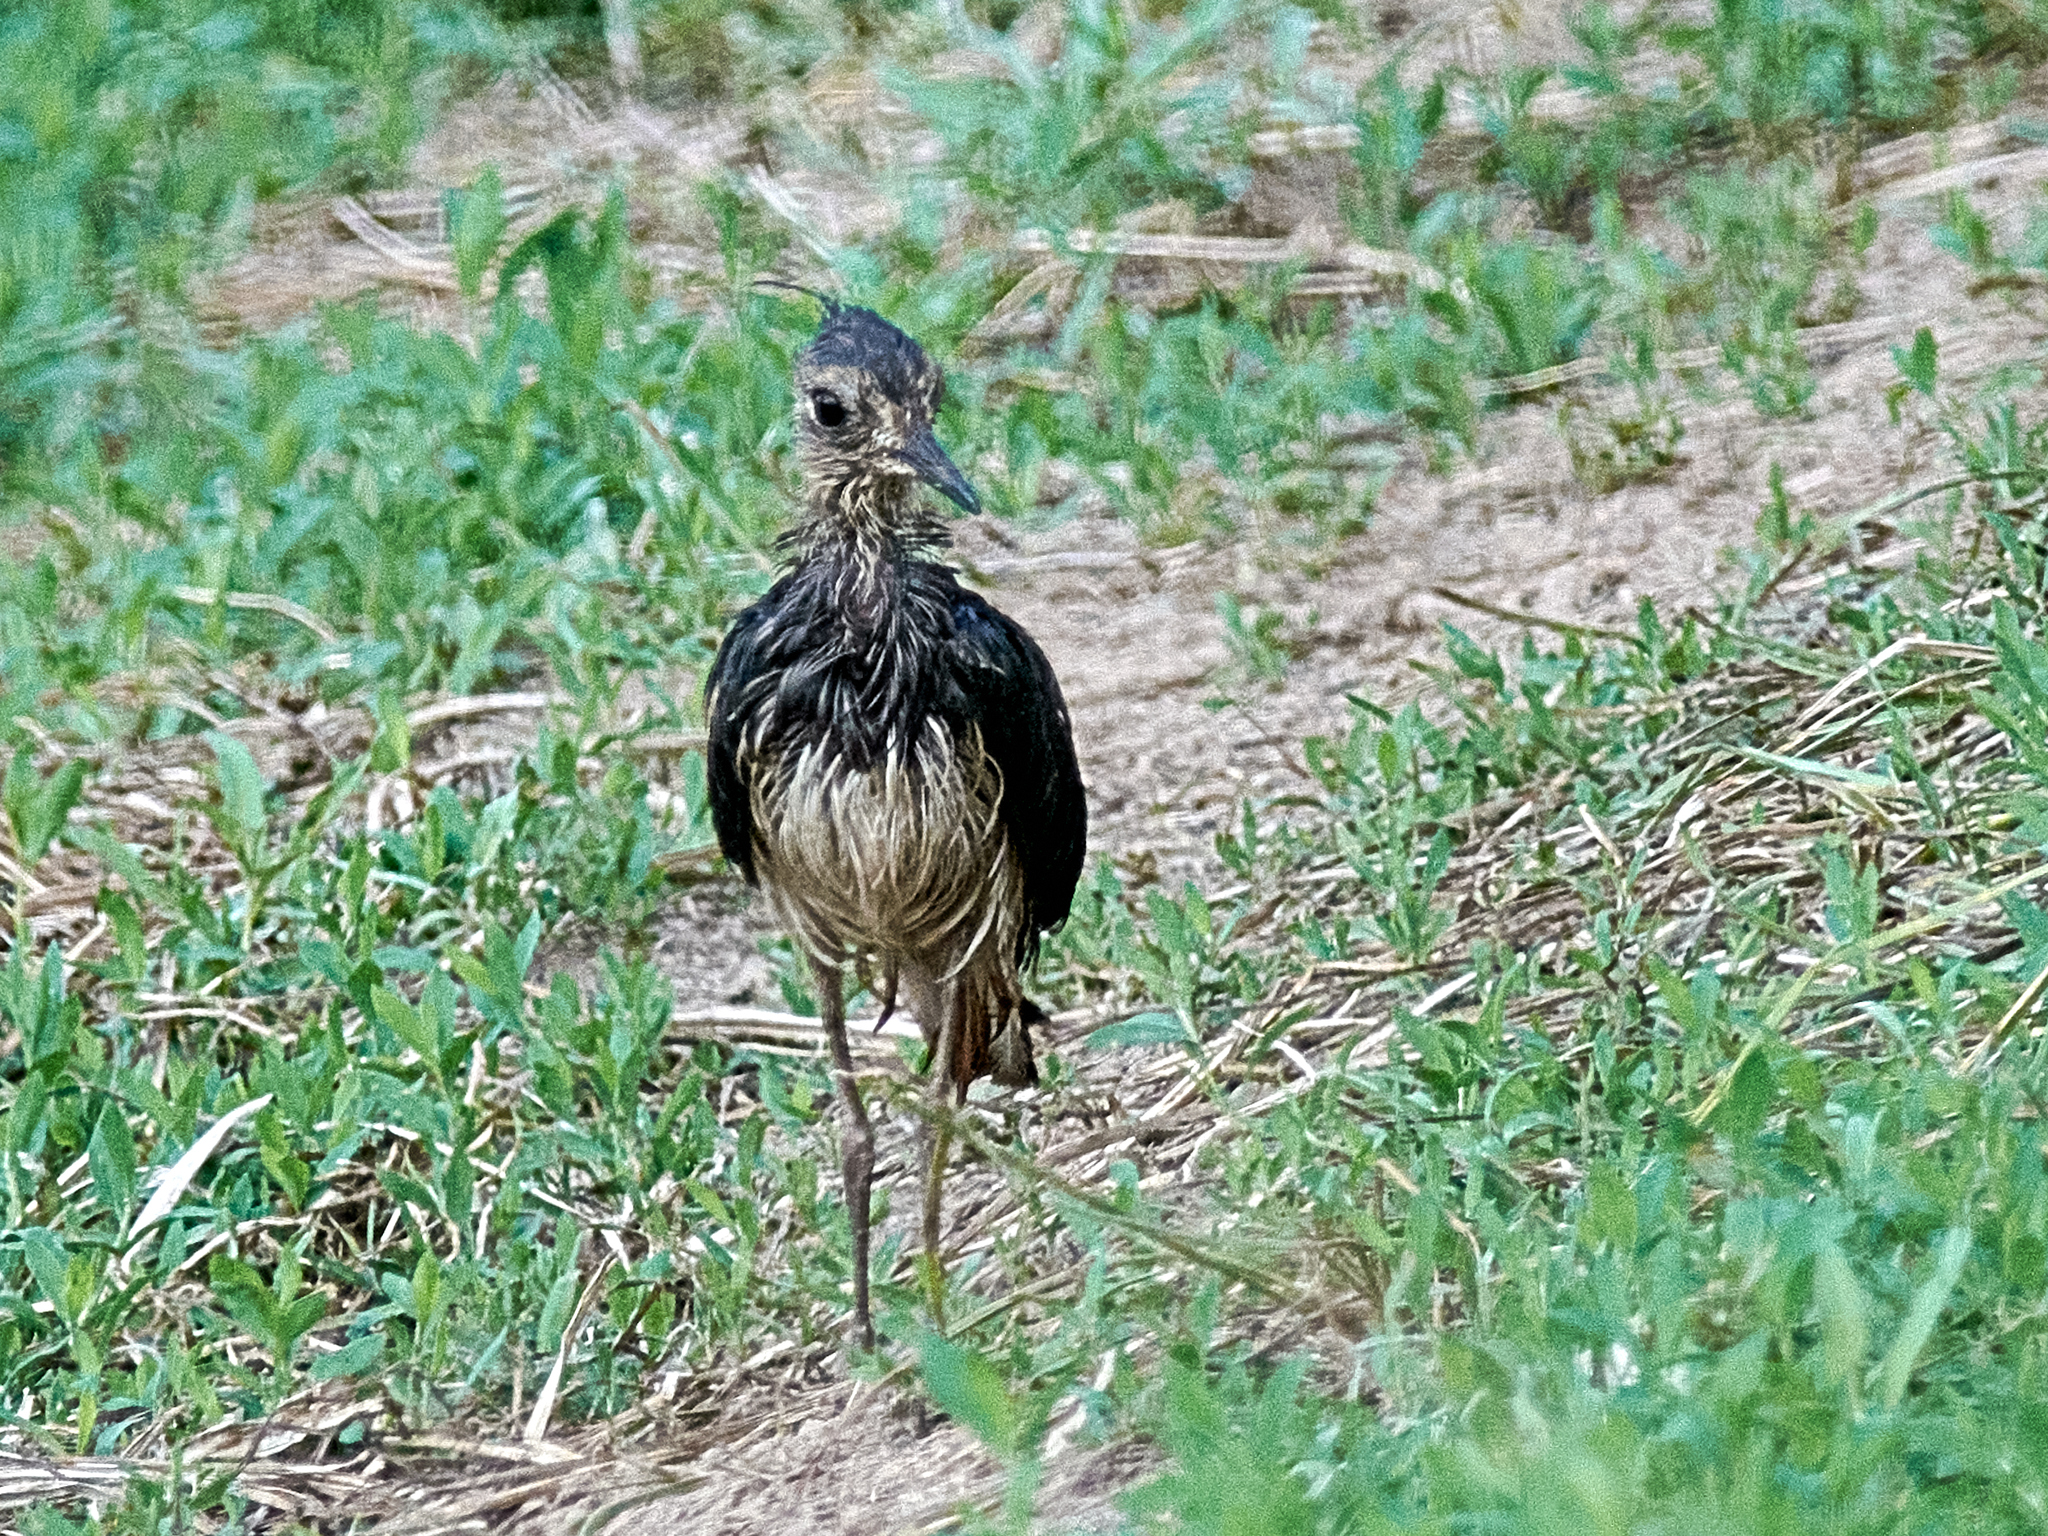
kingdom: Animalia
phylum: Chordata
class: Aves
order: Charadriiformes
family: Charadriidae
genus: Vanellus
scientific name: Vanellus vanellus
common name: Northern lapwing
